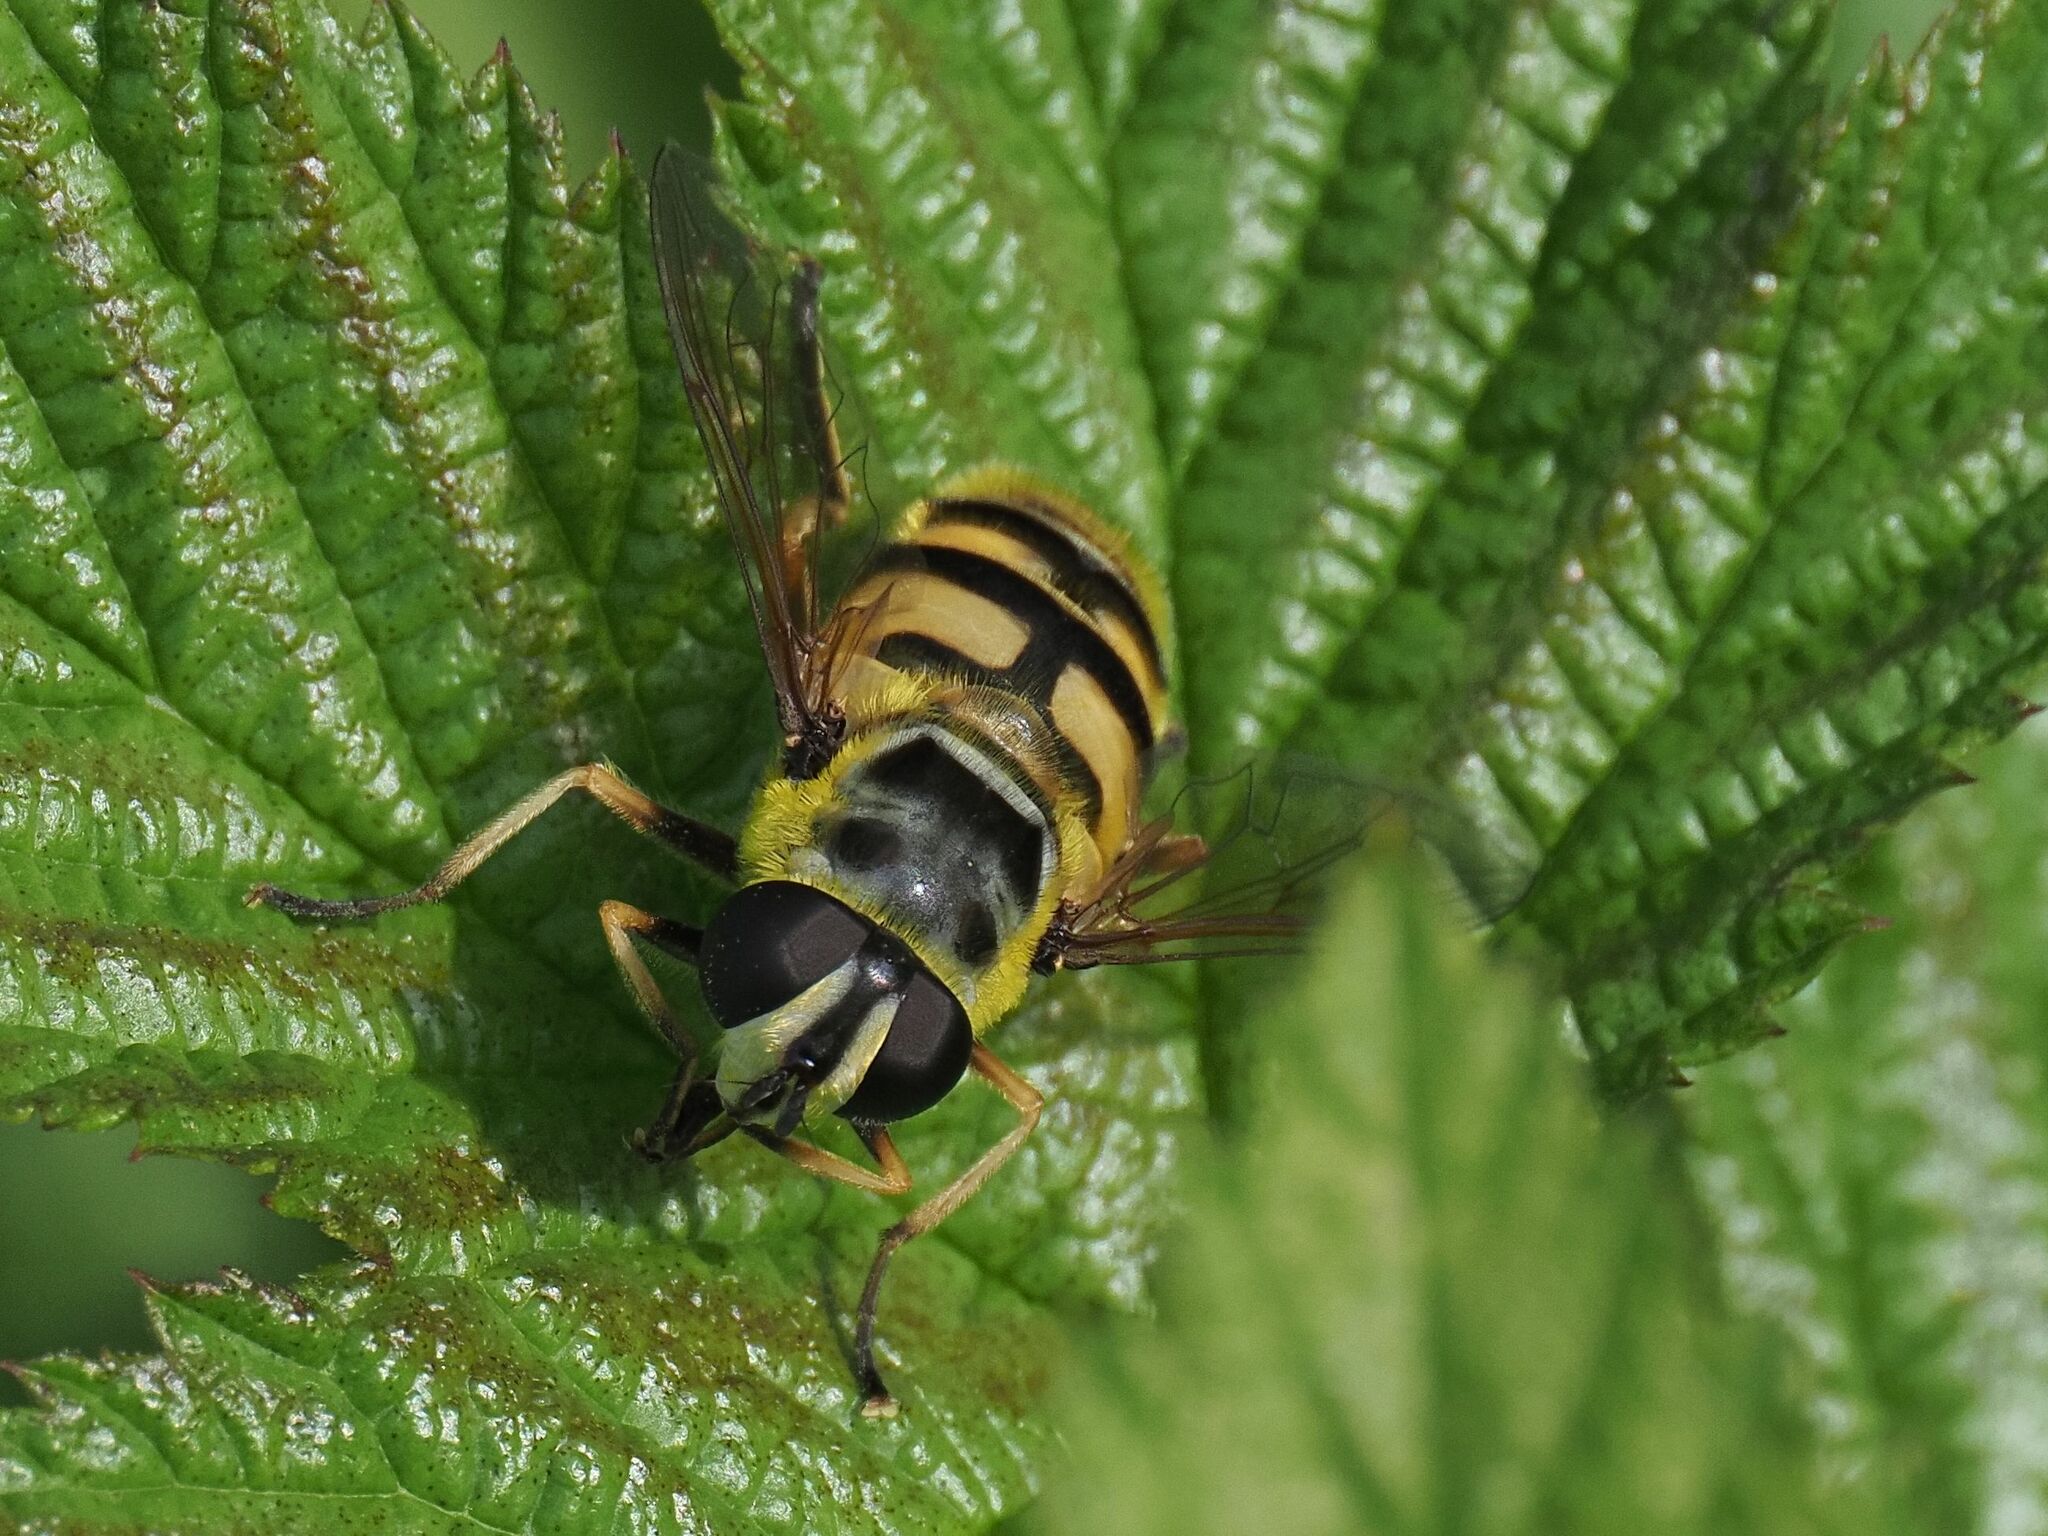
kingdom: Animalia
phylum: Arthropoda
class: Insecta
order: Diptera
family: Syrphidae
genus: Myathropa
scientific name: Myathropa florea
